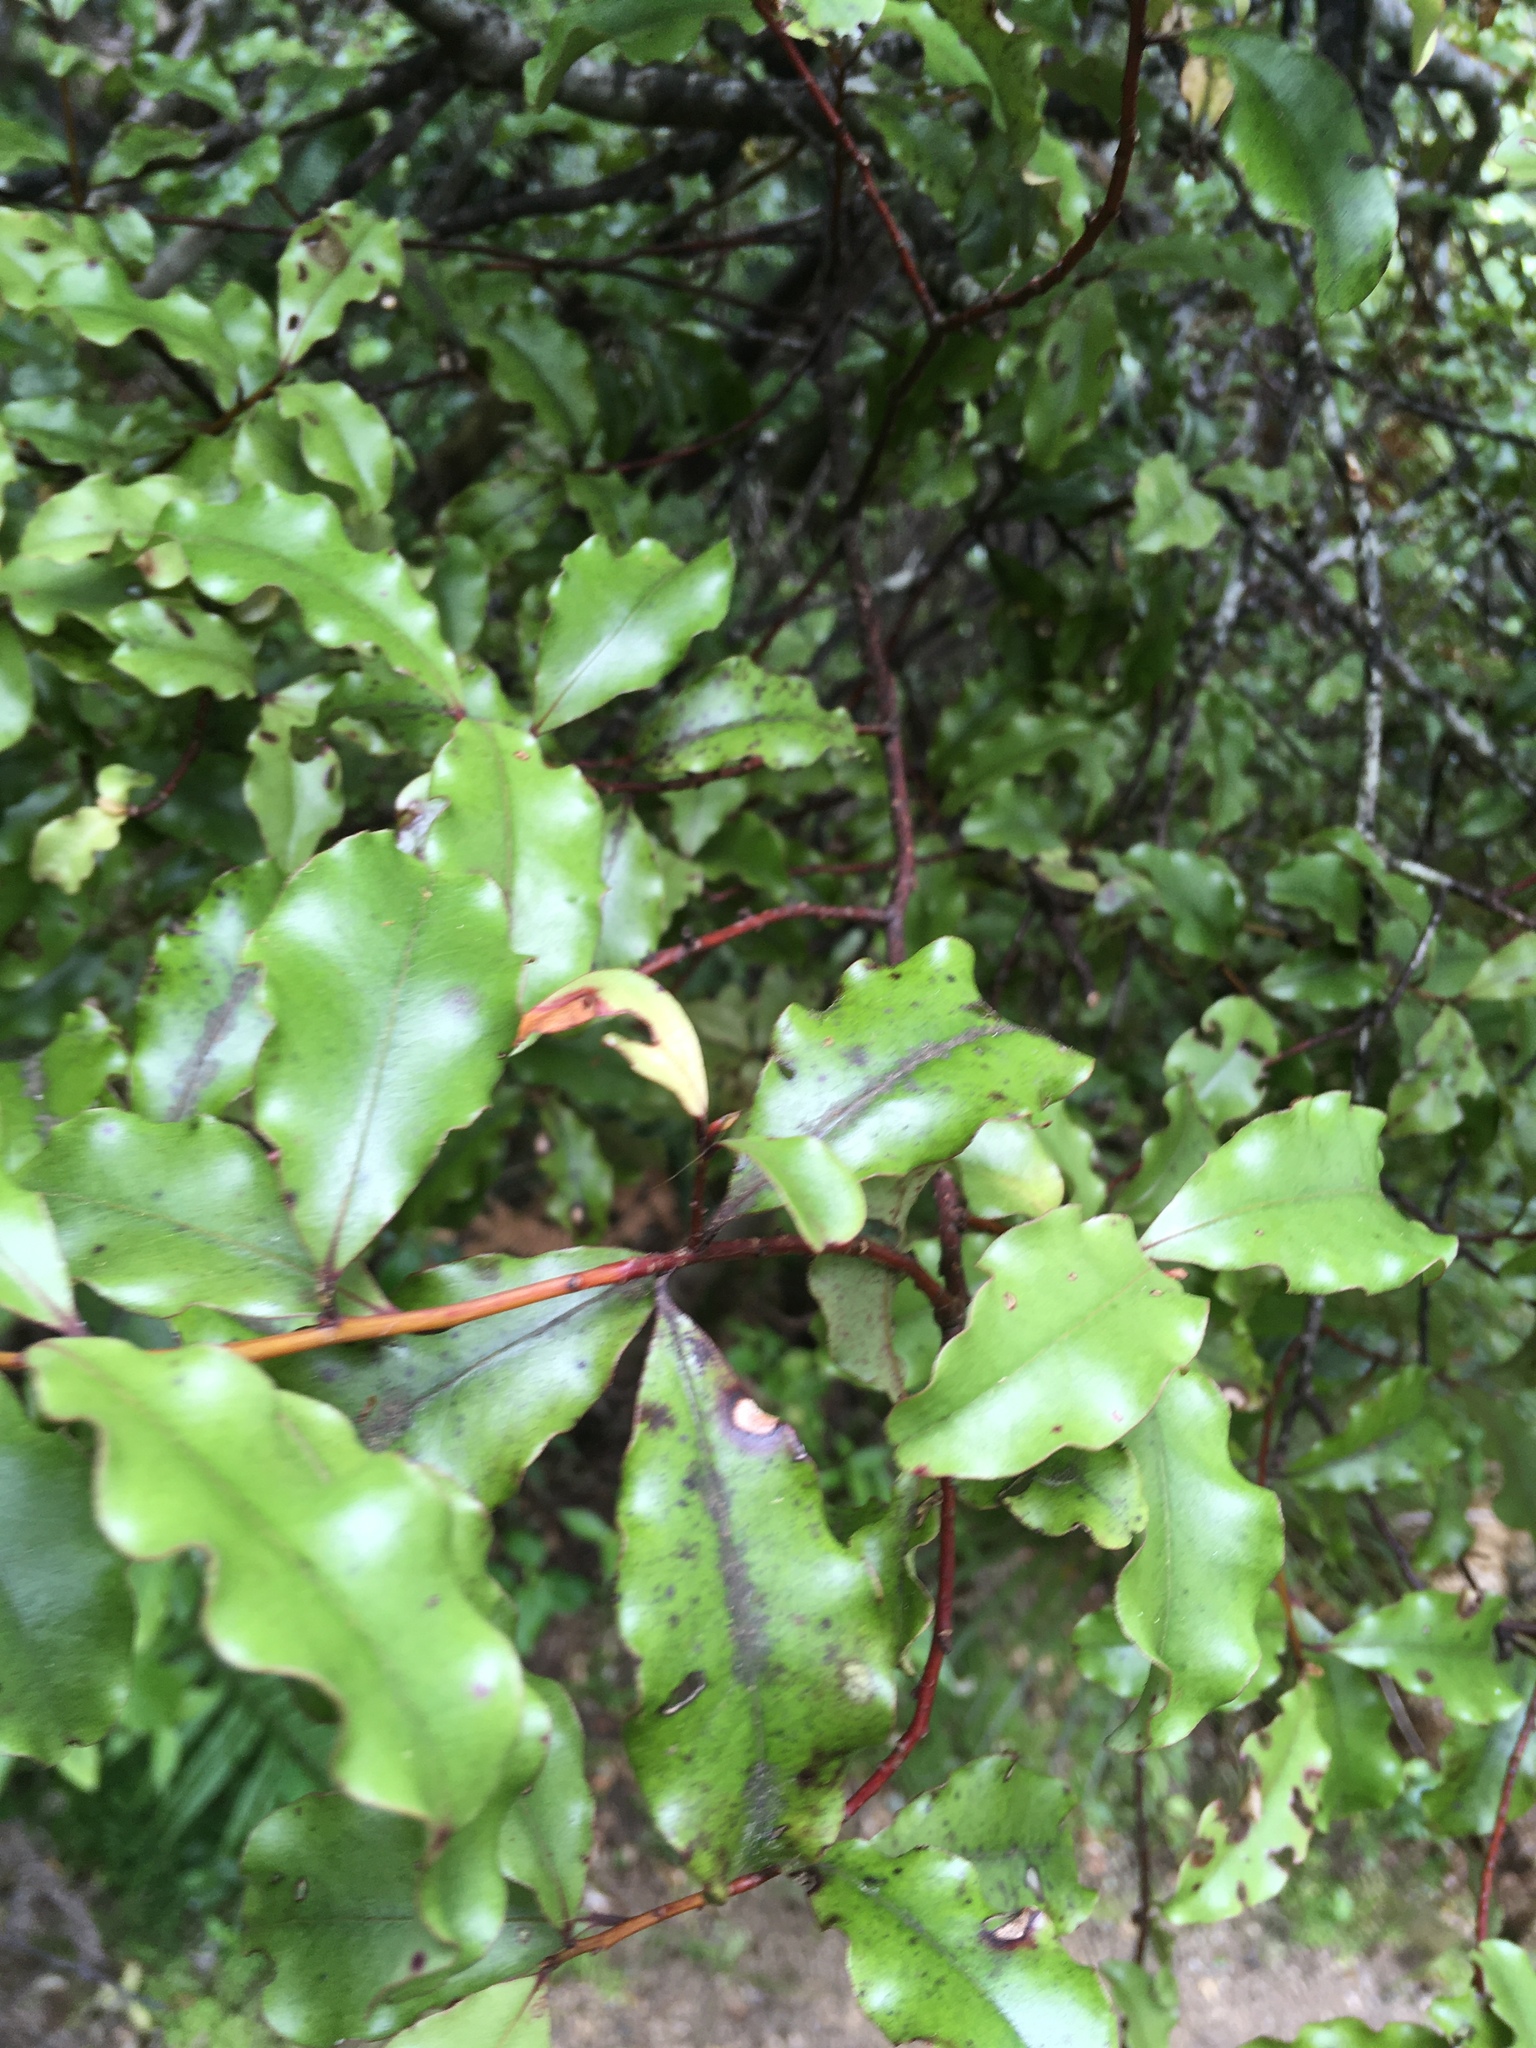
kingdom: Plantae
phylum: Tracheophyta
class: Magnoliopsida
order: Ericales
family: Primulaceae
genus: Myrsine
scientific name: Myrsine australis
